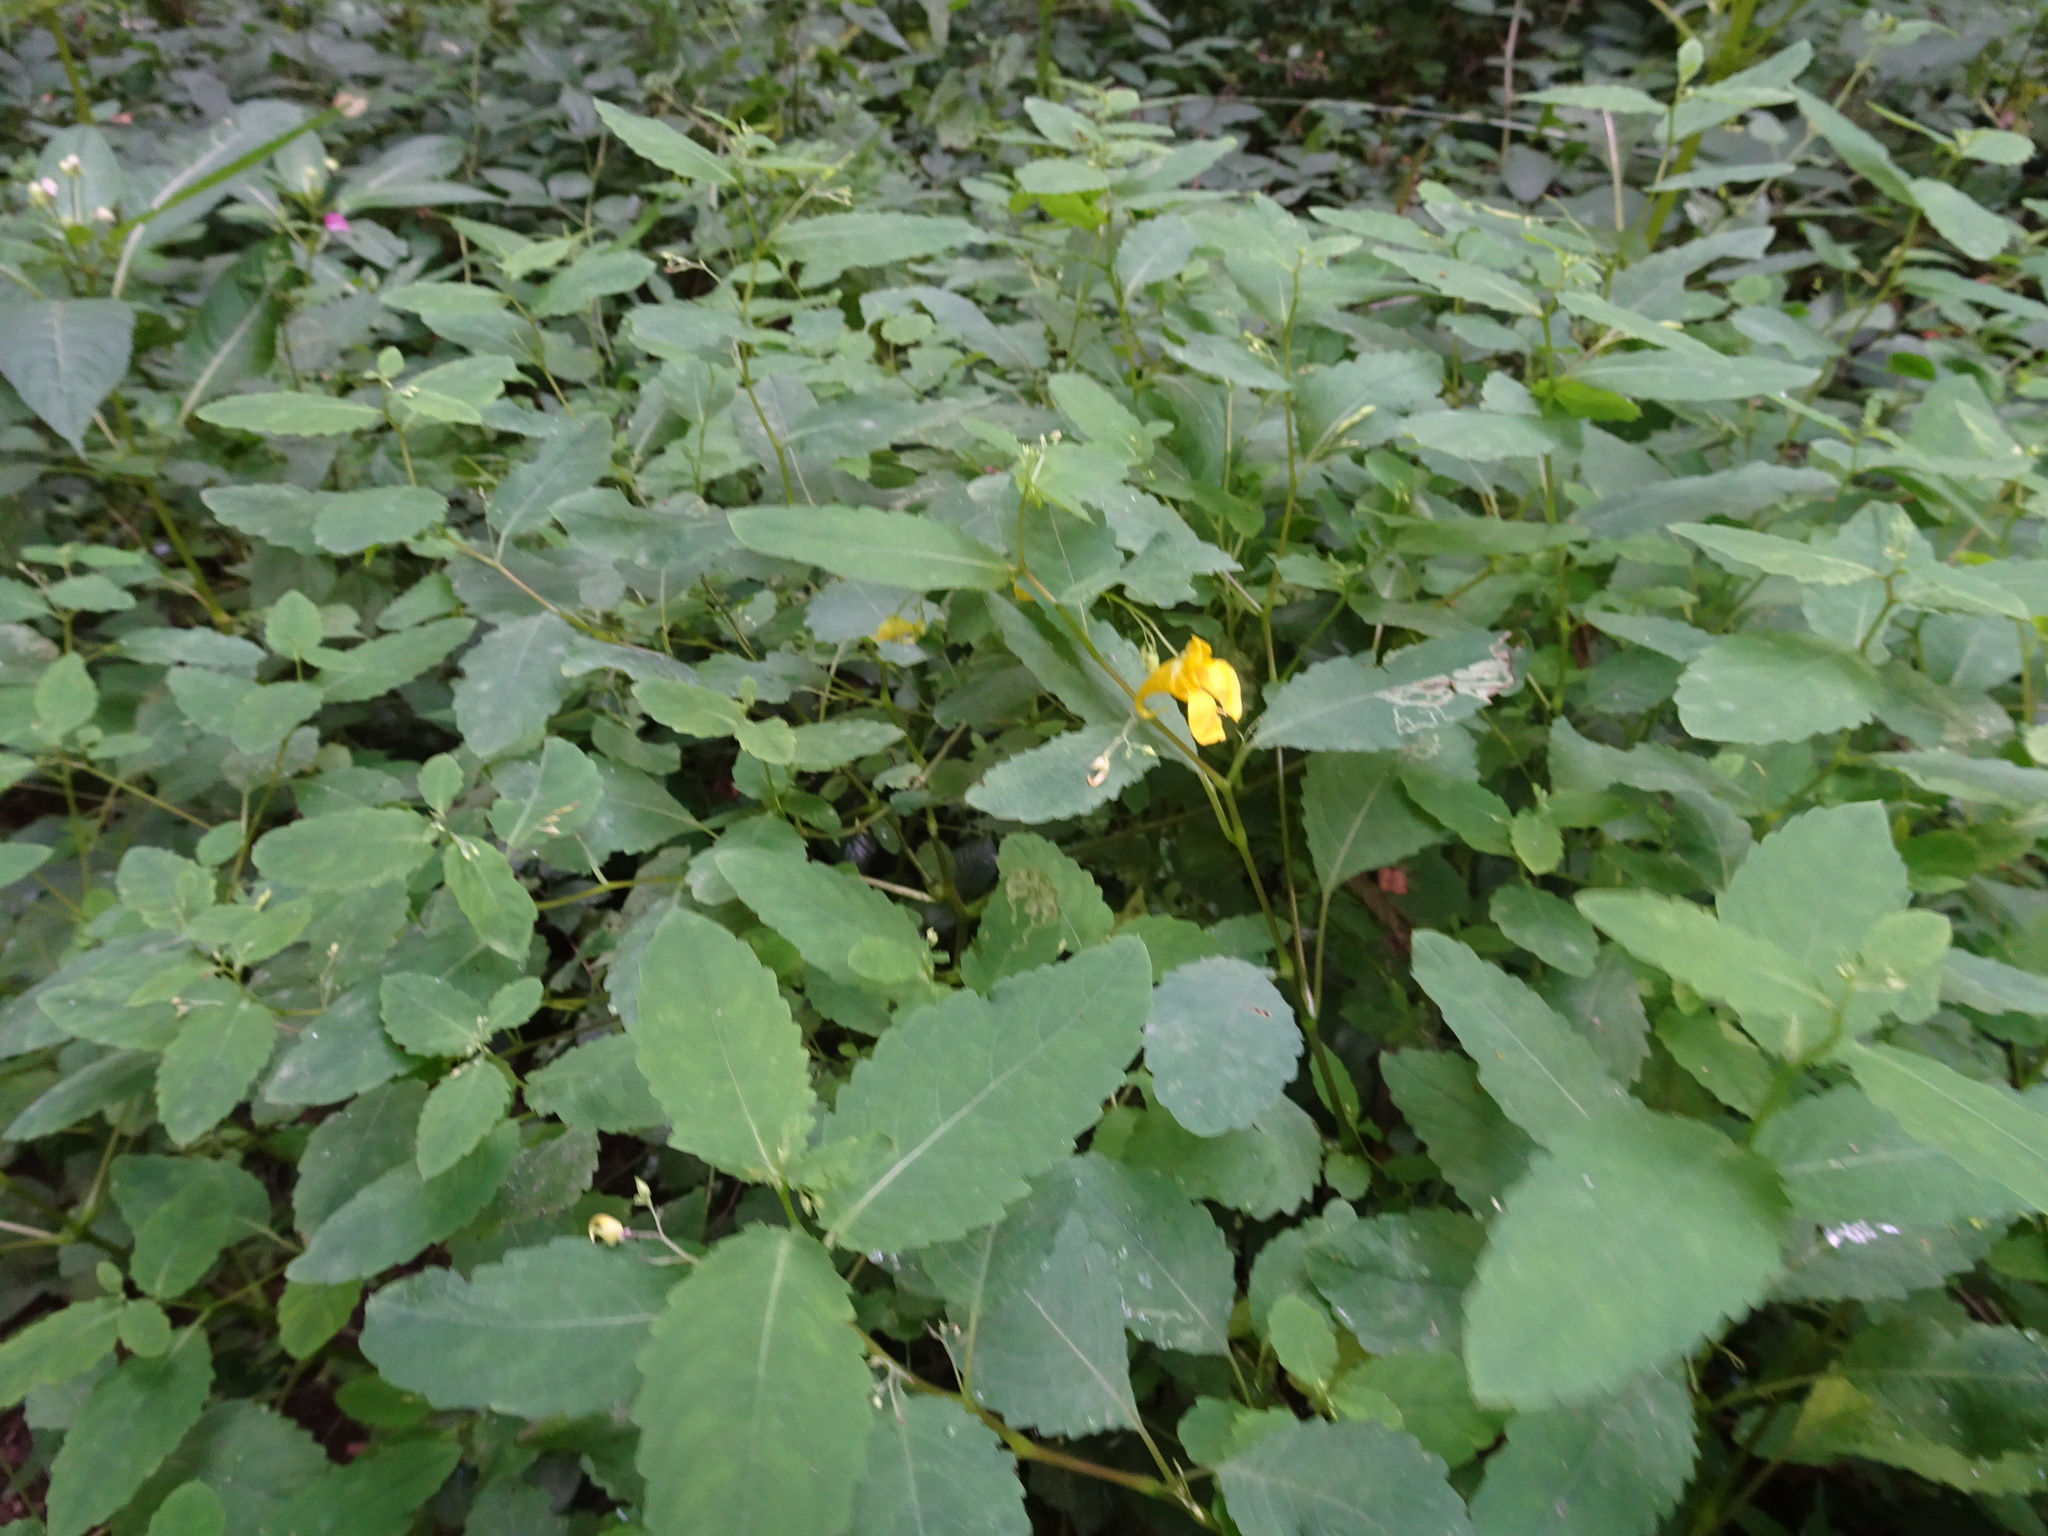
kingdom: Plantae
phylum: Tracheophyta
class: Magnoliopsida
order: Ericales
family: Balsaminaceae
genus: Impatiens
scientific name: Impatiens noli-tangere
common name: Touch-me-not balsam
